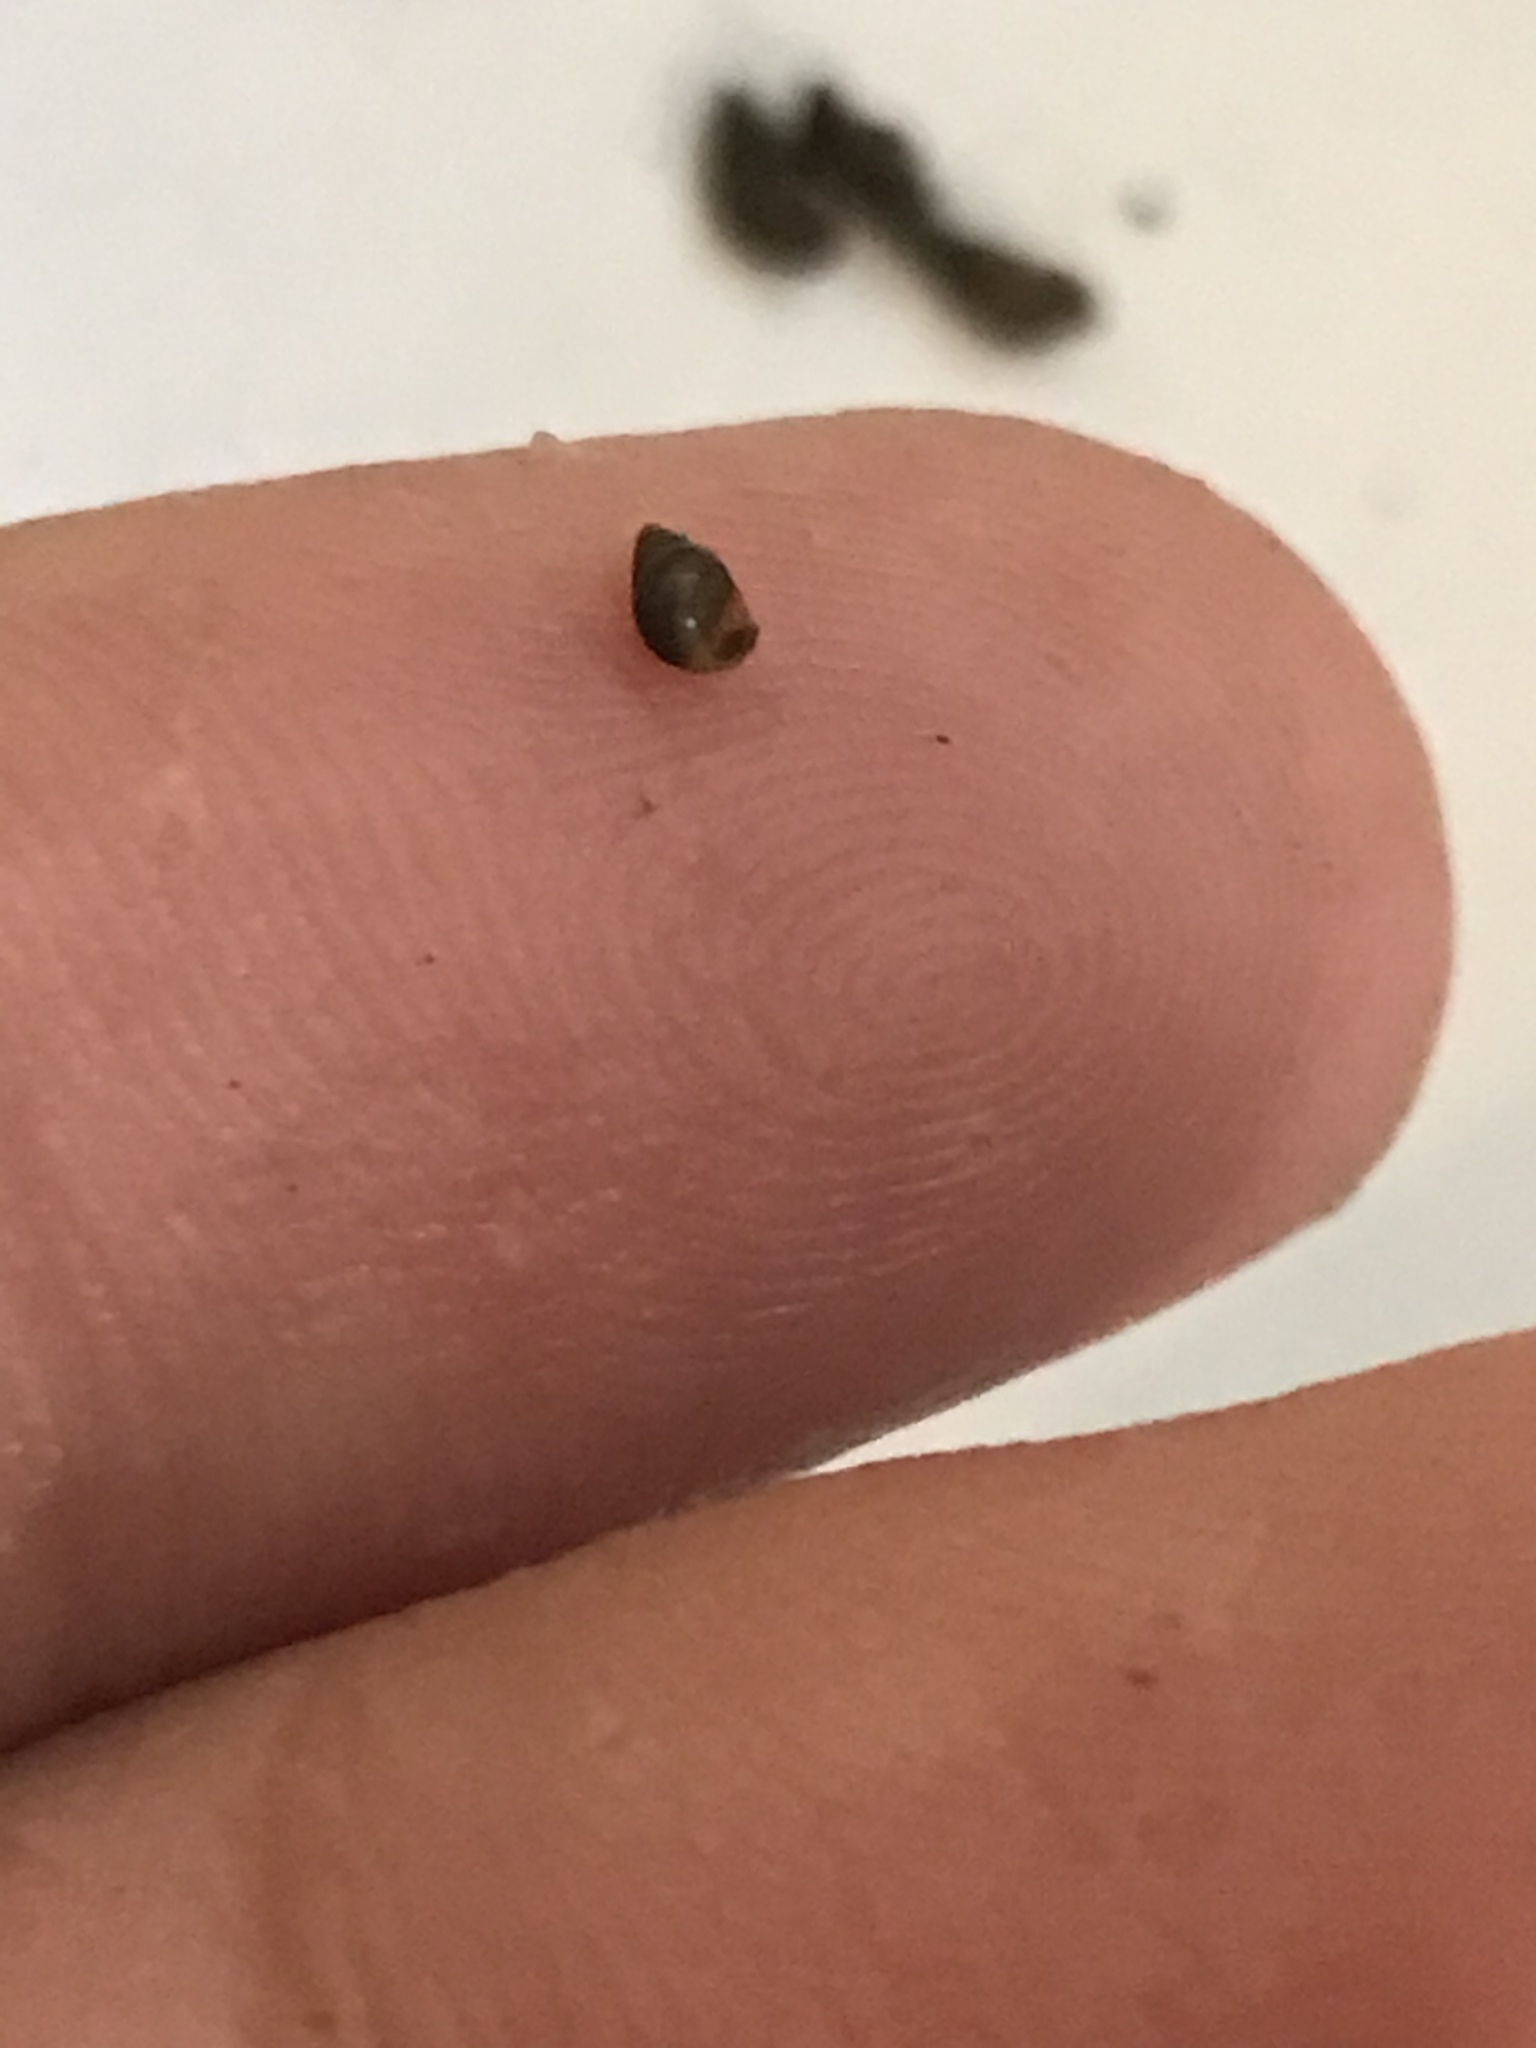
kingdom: Animalia
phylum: Mollusca
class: Gastropoda
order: Littorinimorpha
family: Tateidae
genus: Potamopyrgus
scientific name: Potamopyrgus antipodarum
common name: Jenkins' spire snail
